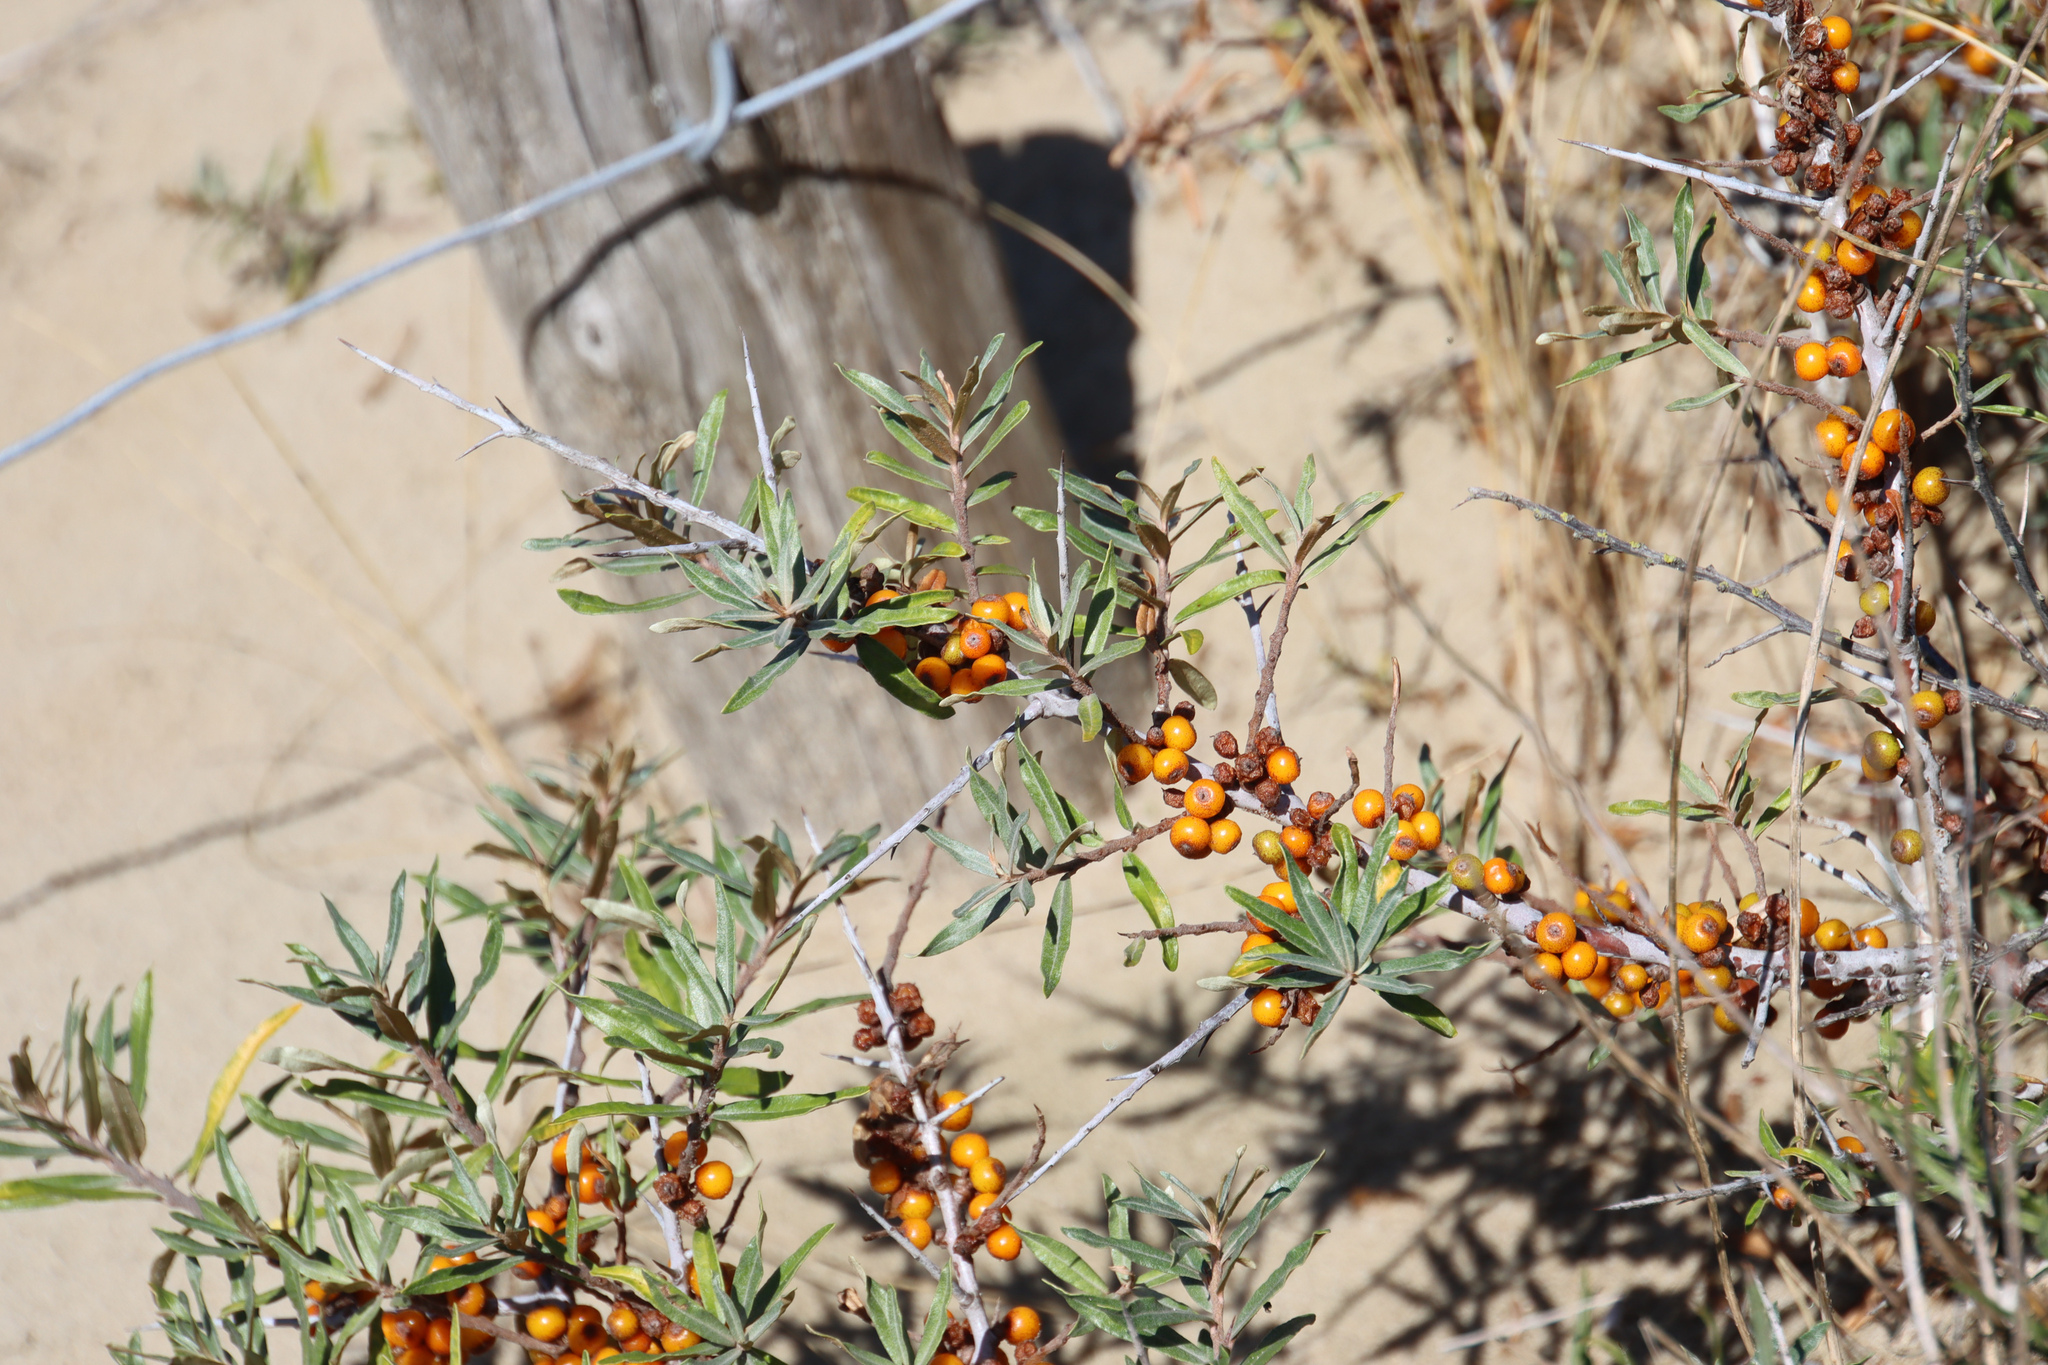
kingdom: Plantae
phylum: Tracheophyta
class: Magnoliopsida
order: Rosales
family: Elaeagnaceae
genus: Hippophae
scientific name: Hippophae rhamnoides
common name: Sea-buckthorn
